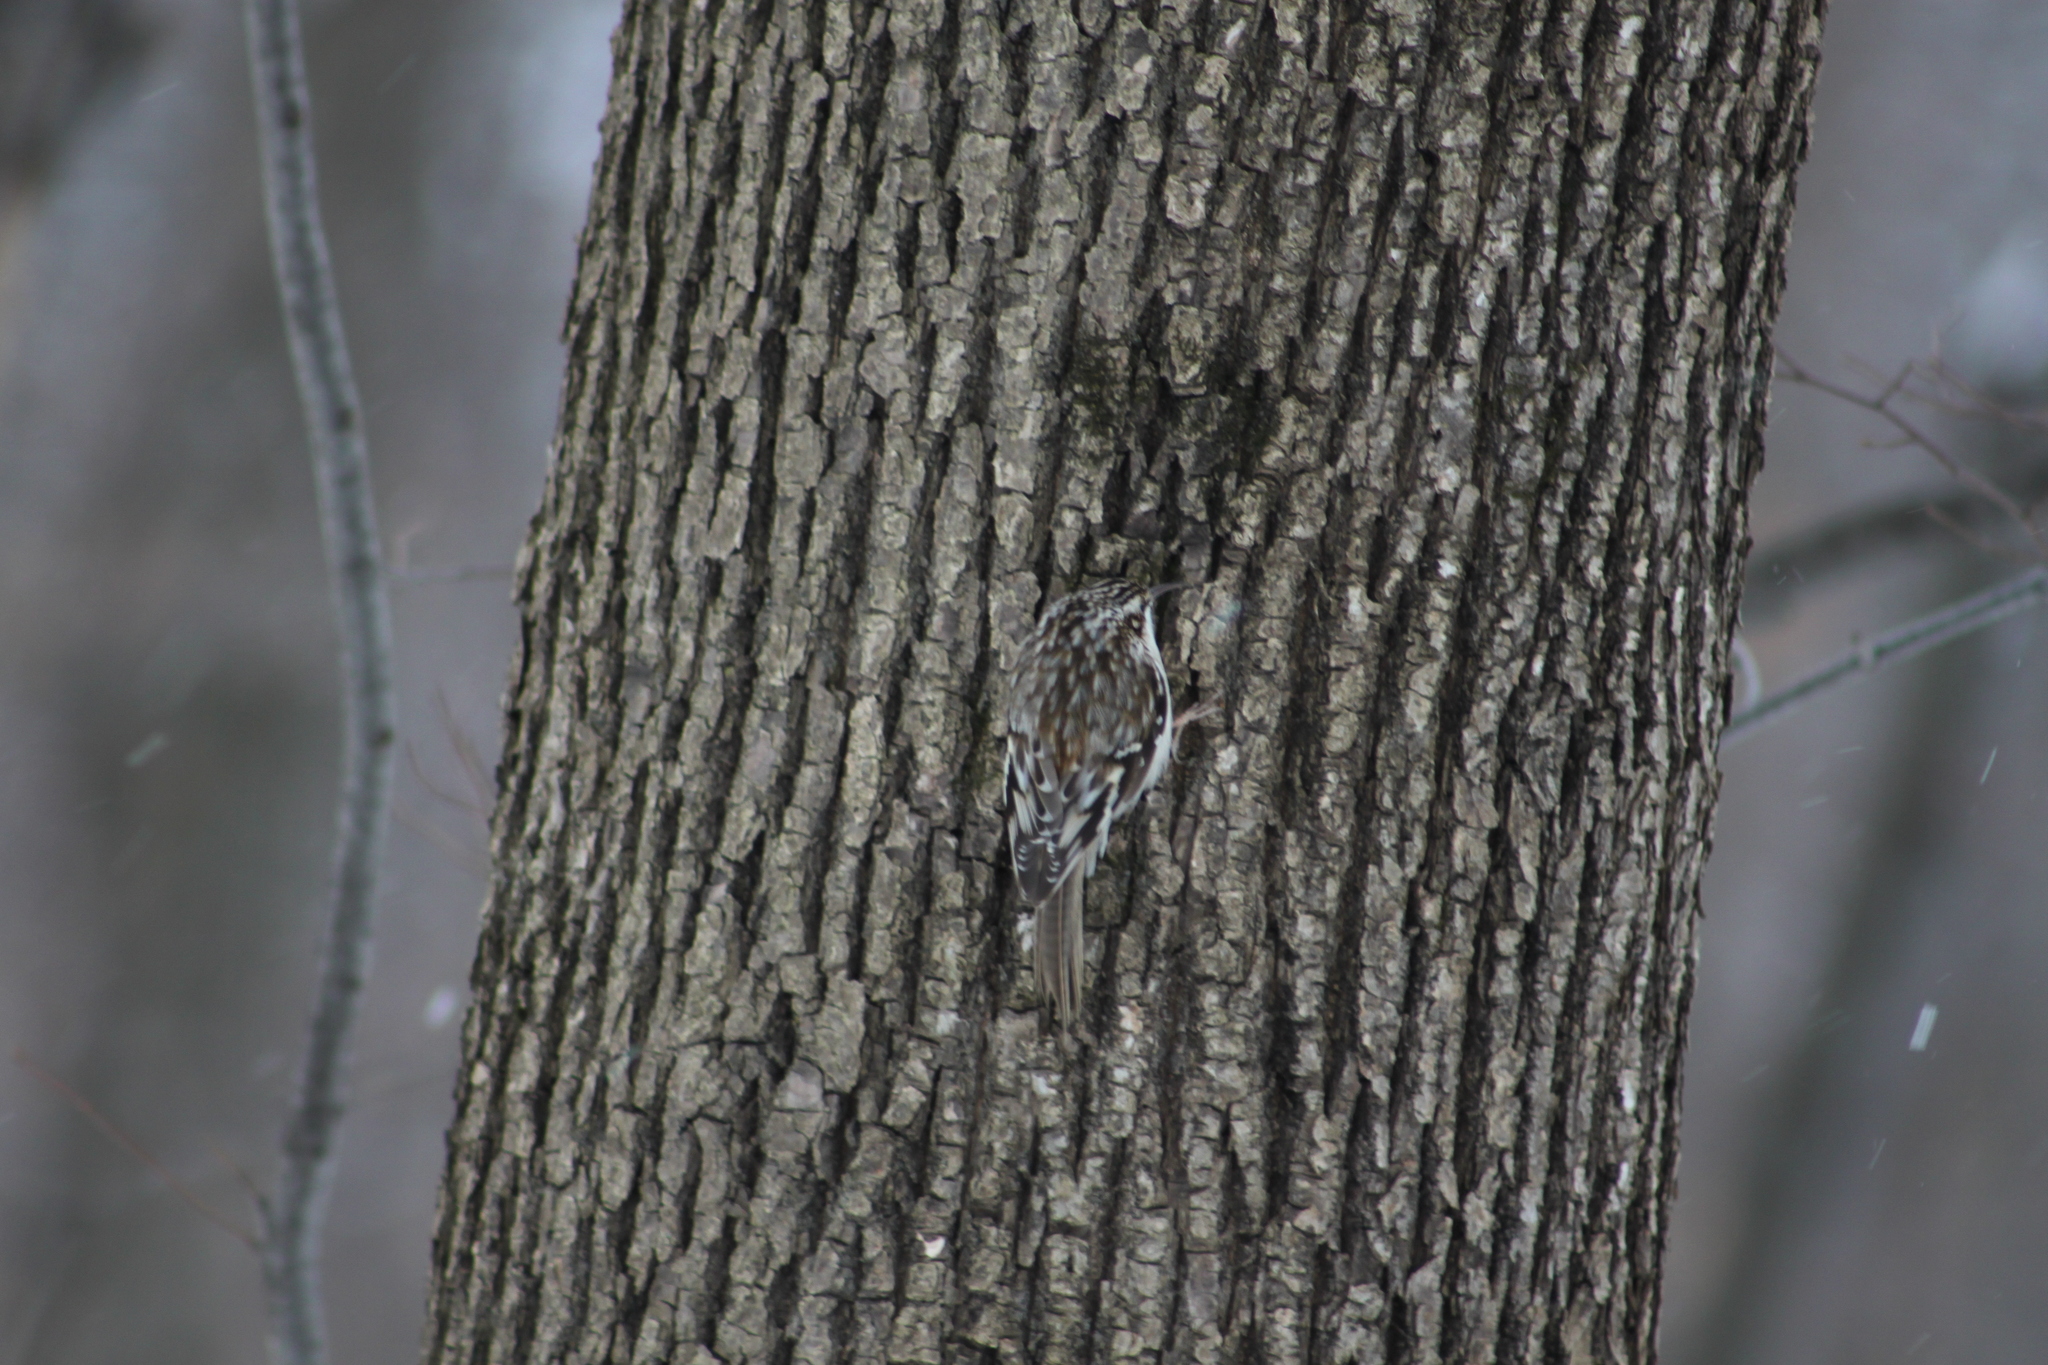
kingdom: Animalia
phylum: Chordata
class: Aves
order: Passeriformes
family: Certhiidae
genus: Certhia
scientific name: Certhia americana
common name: Brown creeper
